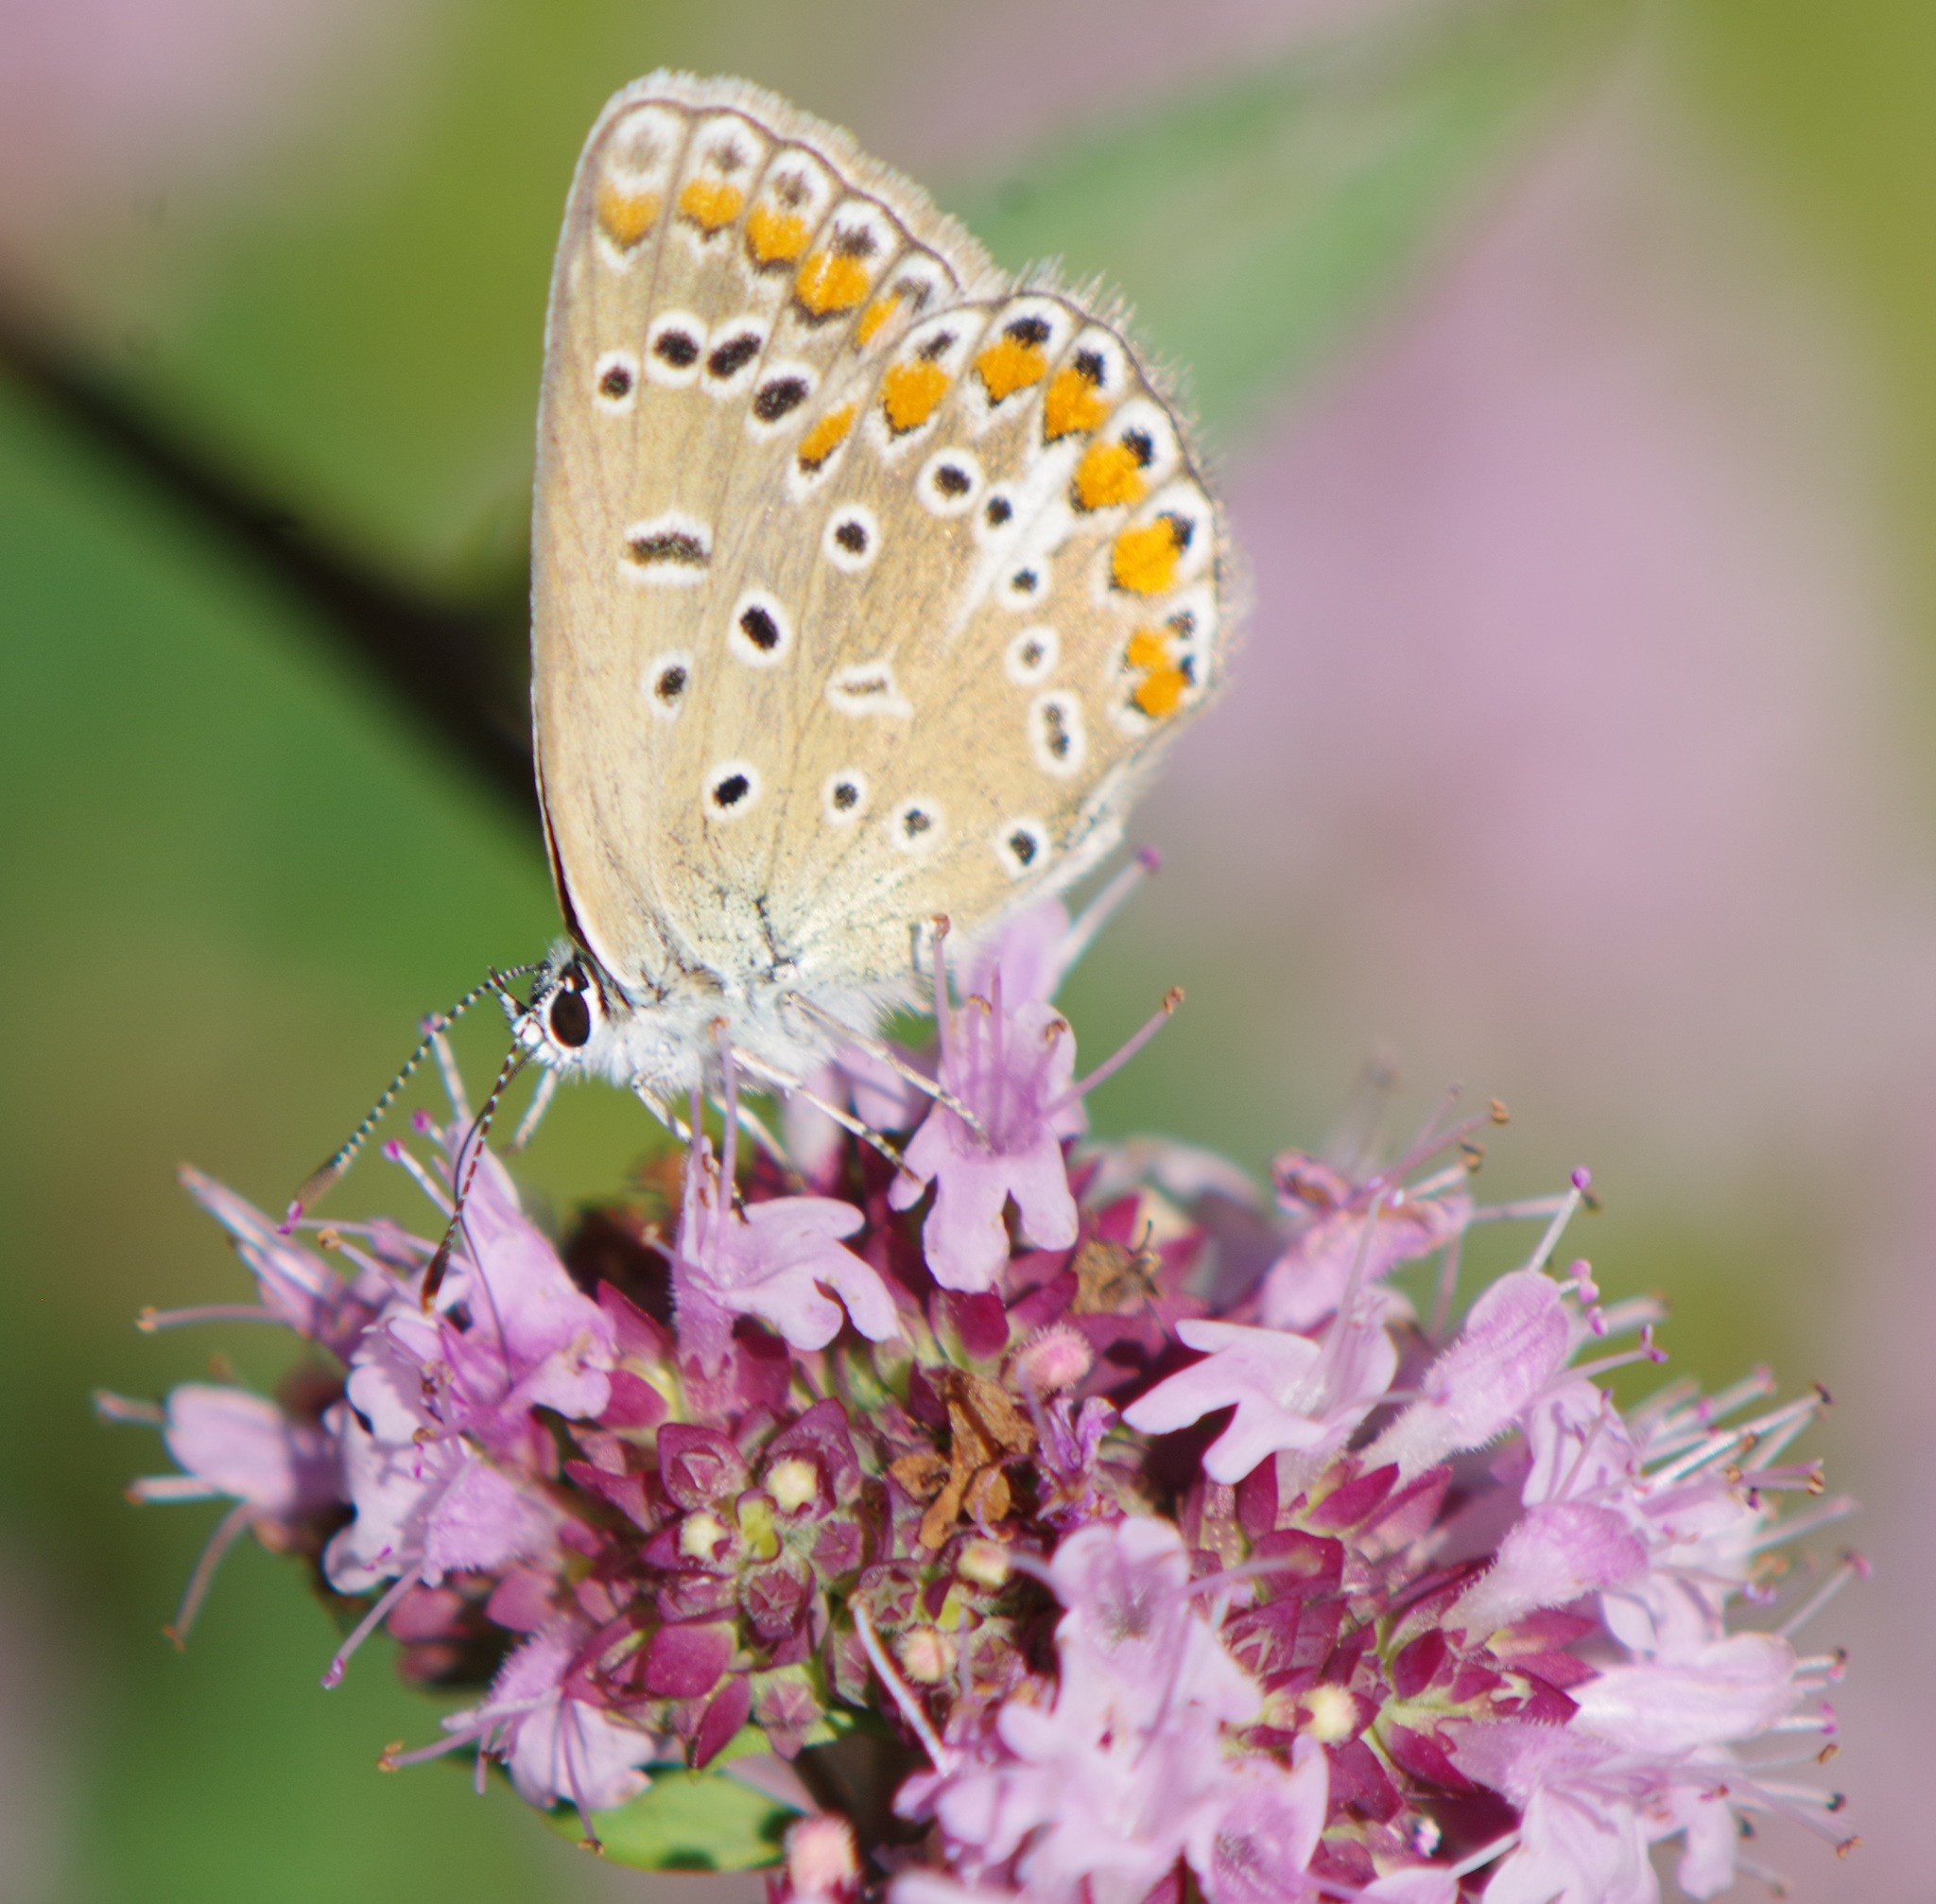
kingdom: Animalia
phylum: Arthropoda
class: Insecta
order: Lepidoptera
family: Lycaenidae
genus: Polyommatus
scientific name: Polyommatus icarus
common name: Common blue
